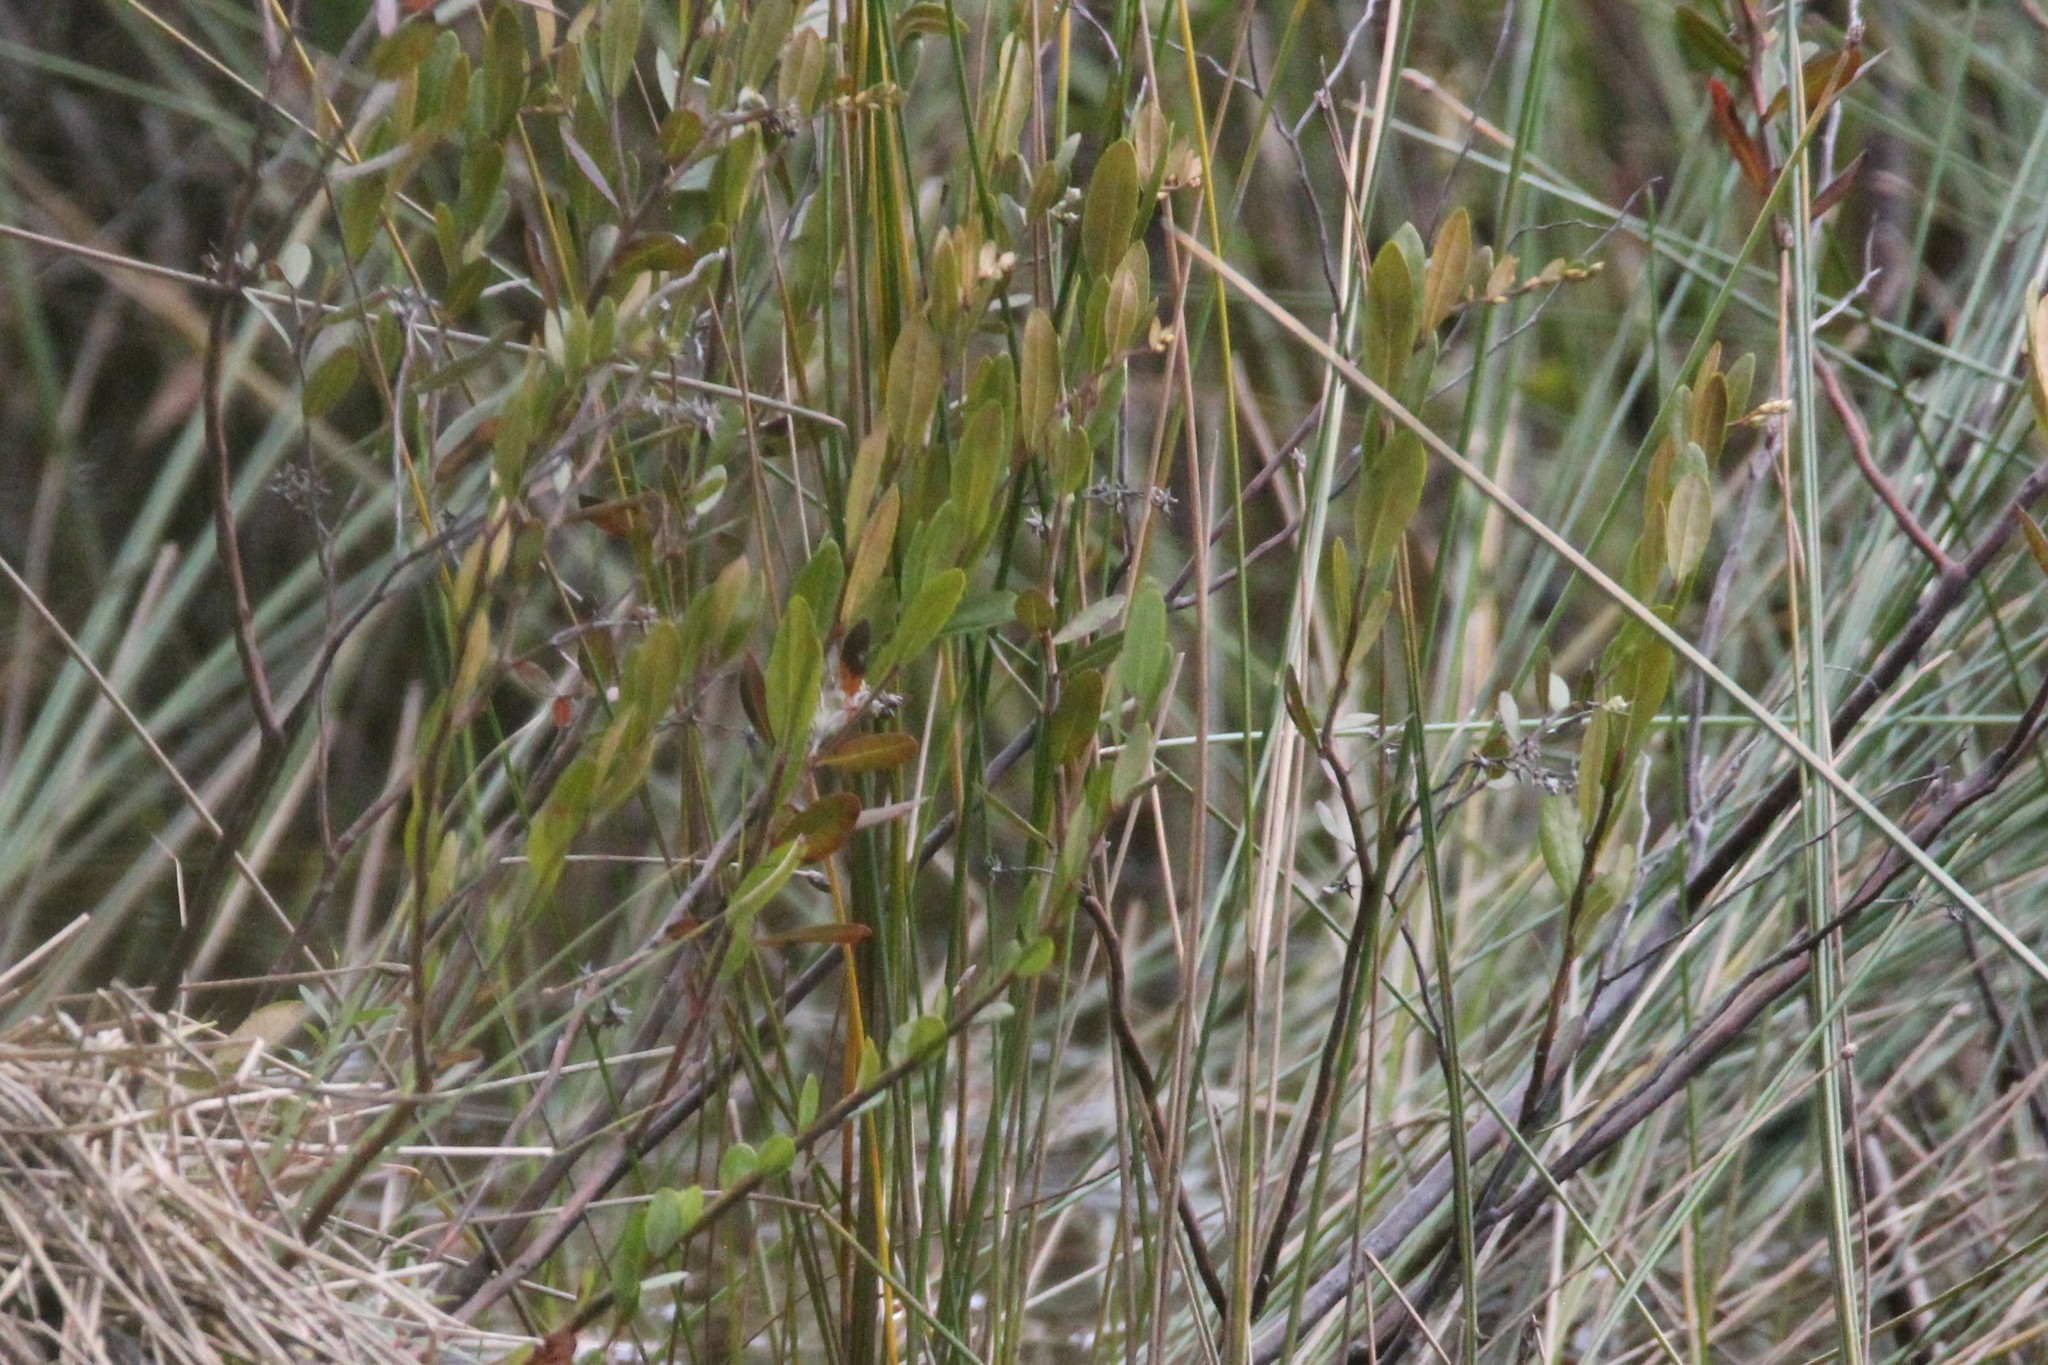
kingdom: Plantae
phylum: Tracheophyta
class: Magnoliopsida
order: Ericales
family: Ericaceae
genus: Chamaedaphne
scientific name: Chamaedaphne calyculata
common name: Leatherleaf
